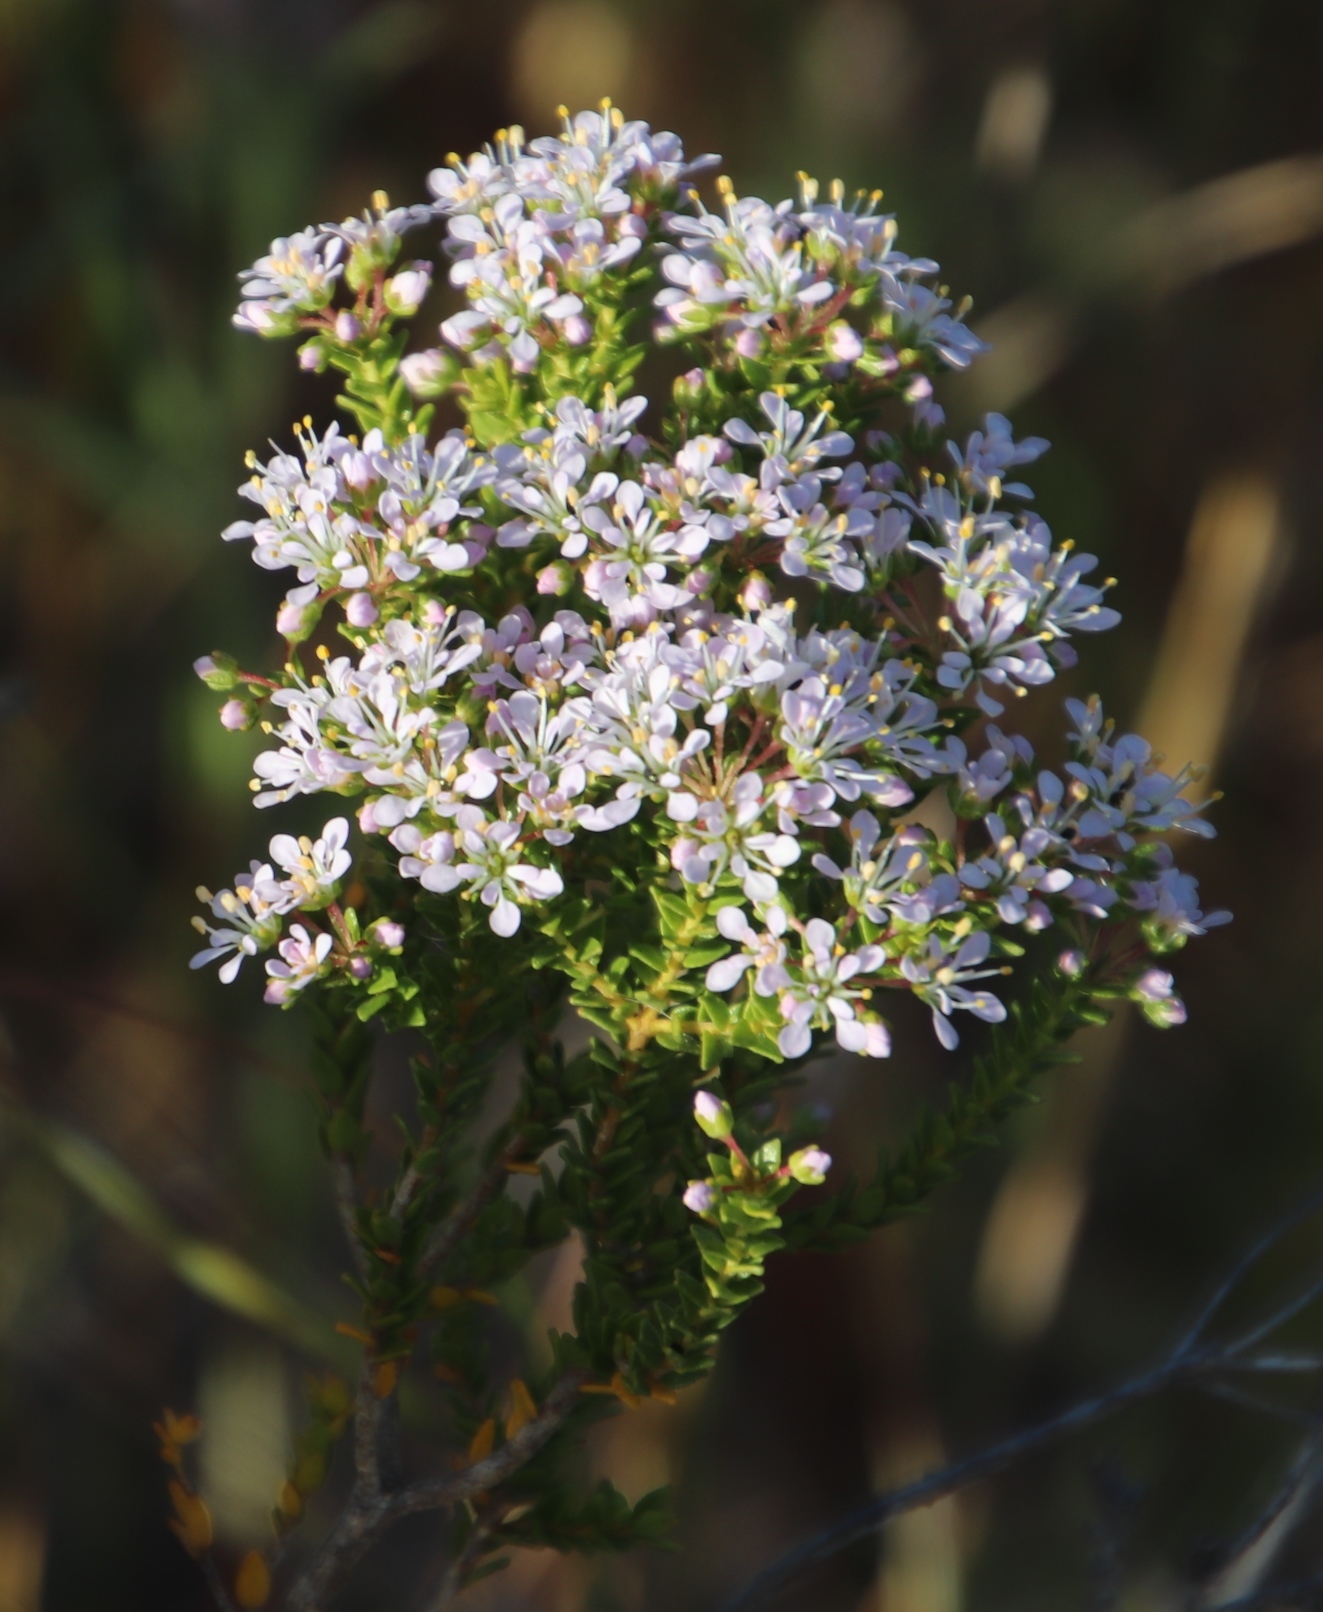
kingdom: Plantae
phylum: Tracheophyta
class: Magnoliopsida
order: Sapindales
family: Rutaceae
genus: Agathosma
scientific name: Agathosma glabrata
